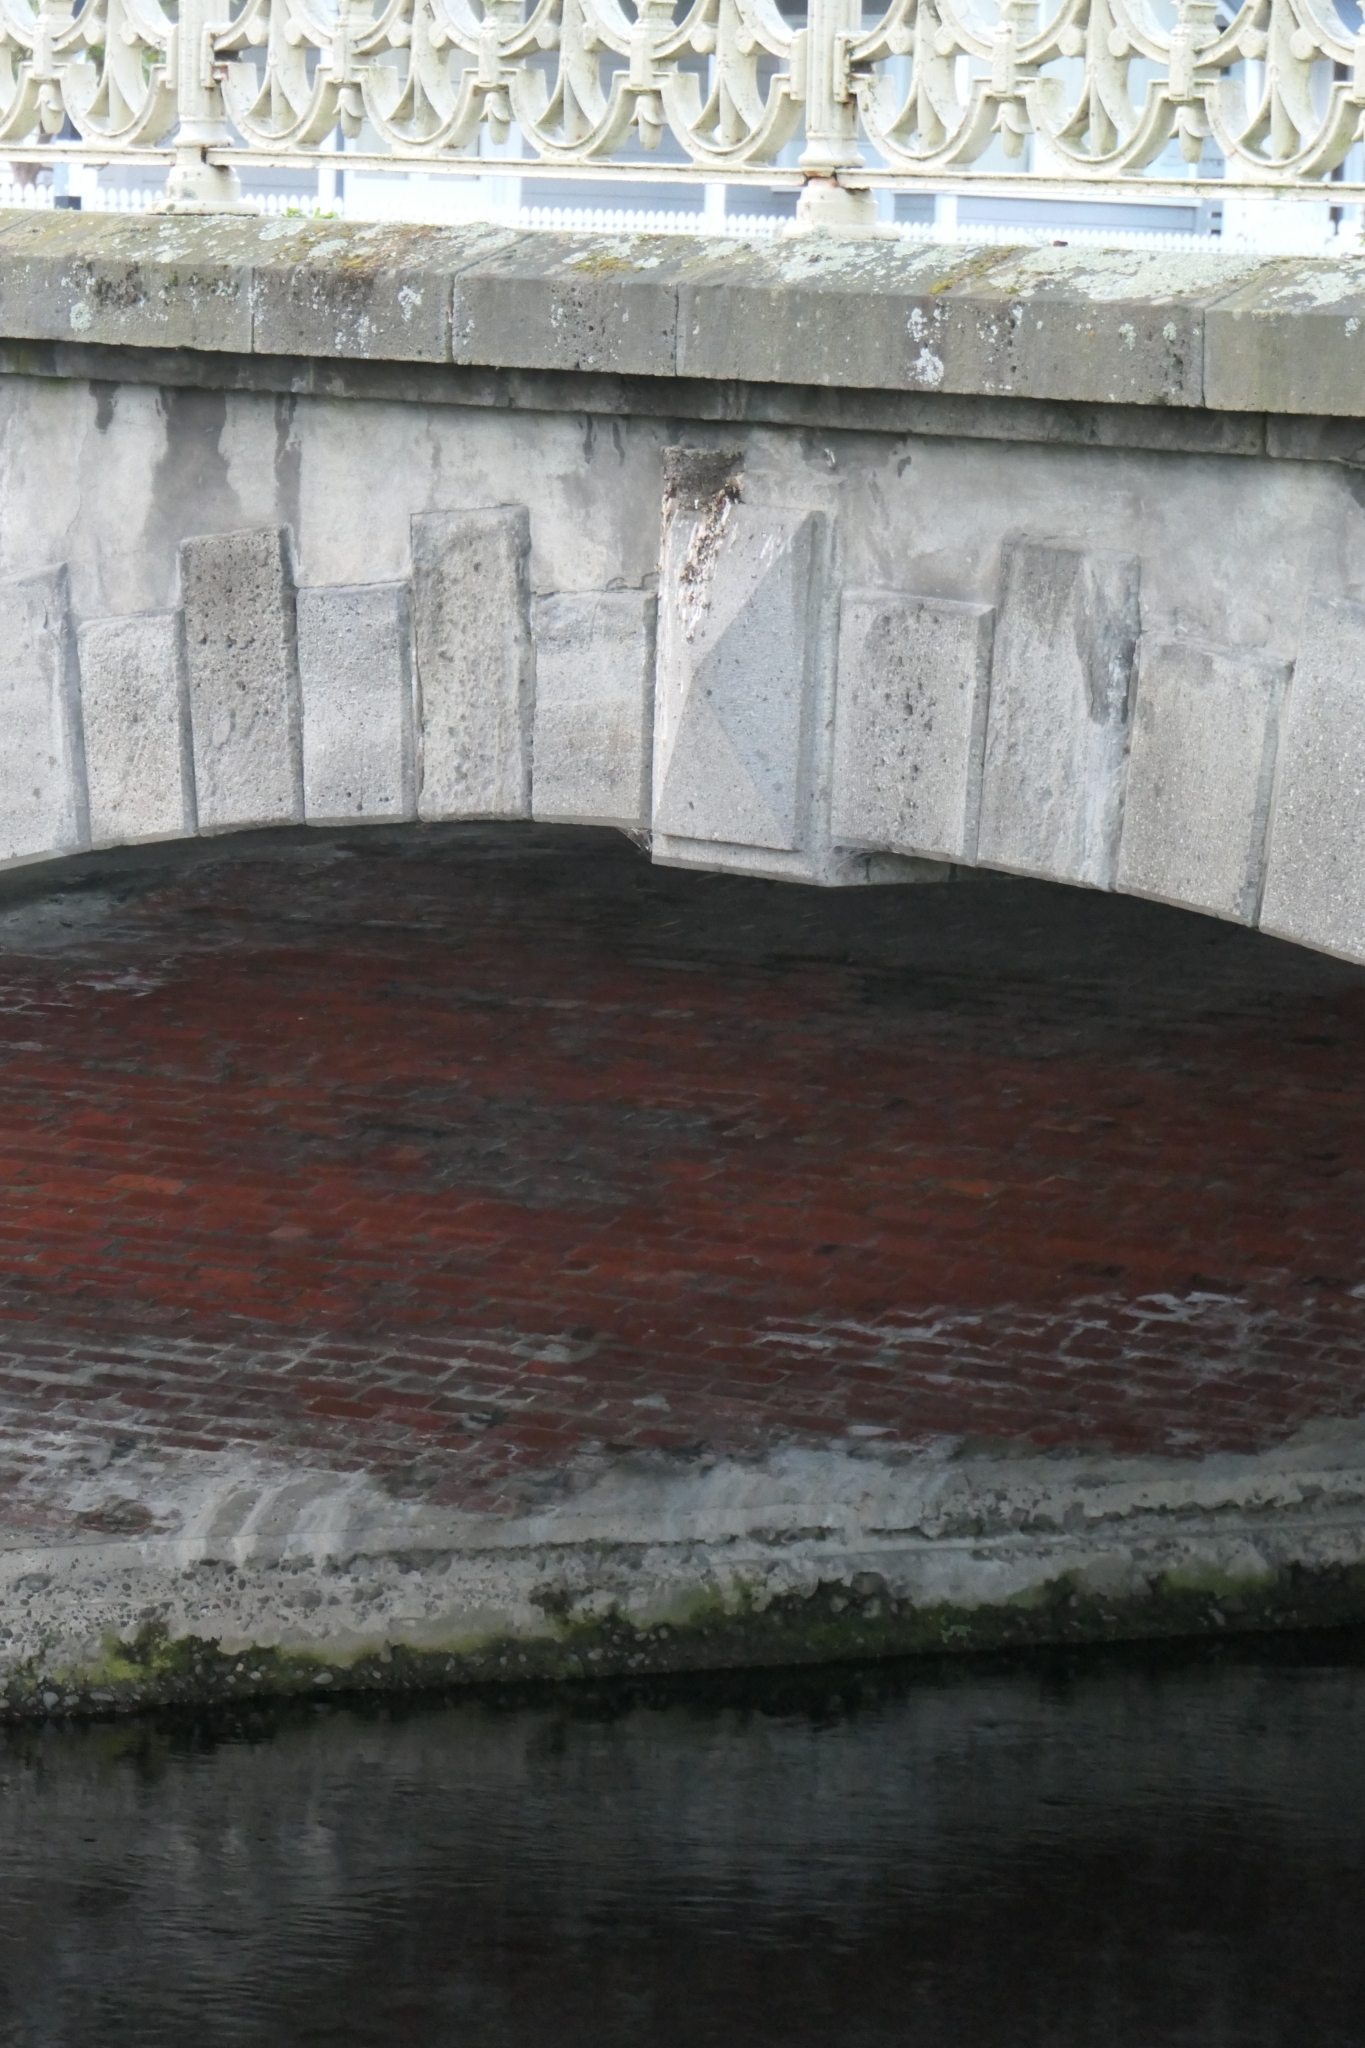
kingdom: Animalia
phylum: Chordata
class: Aves
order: Passeriformes
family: Hirundinidae
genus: Hirundo
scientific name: Hirundo neoxena
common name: Welcome swallow
